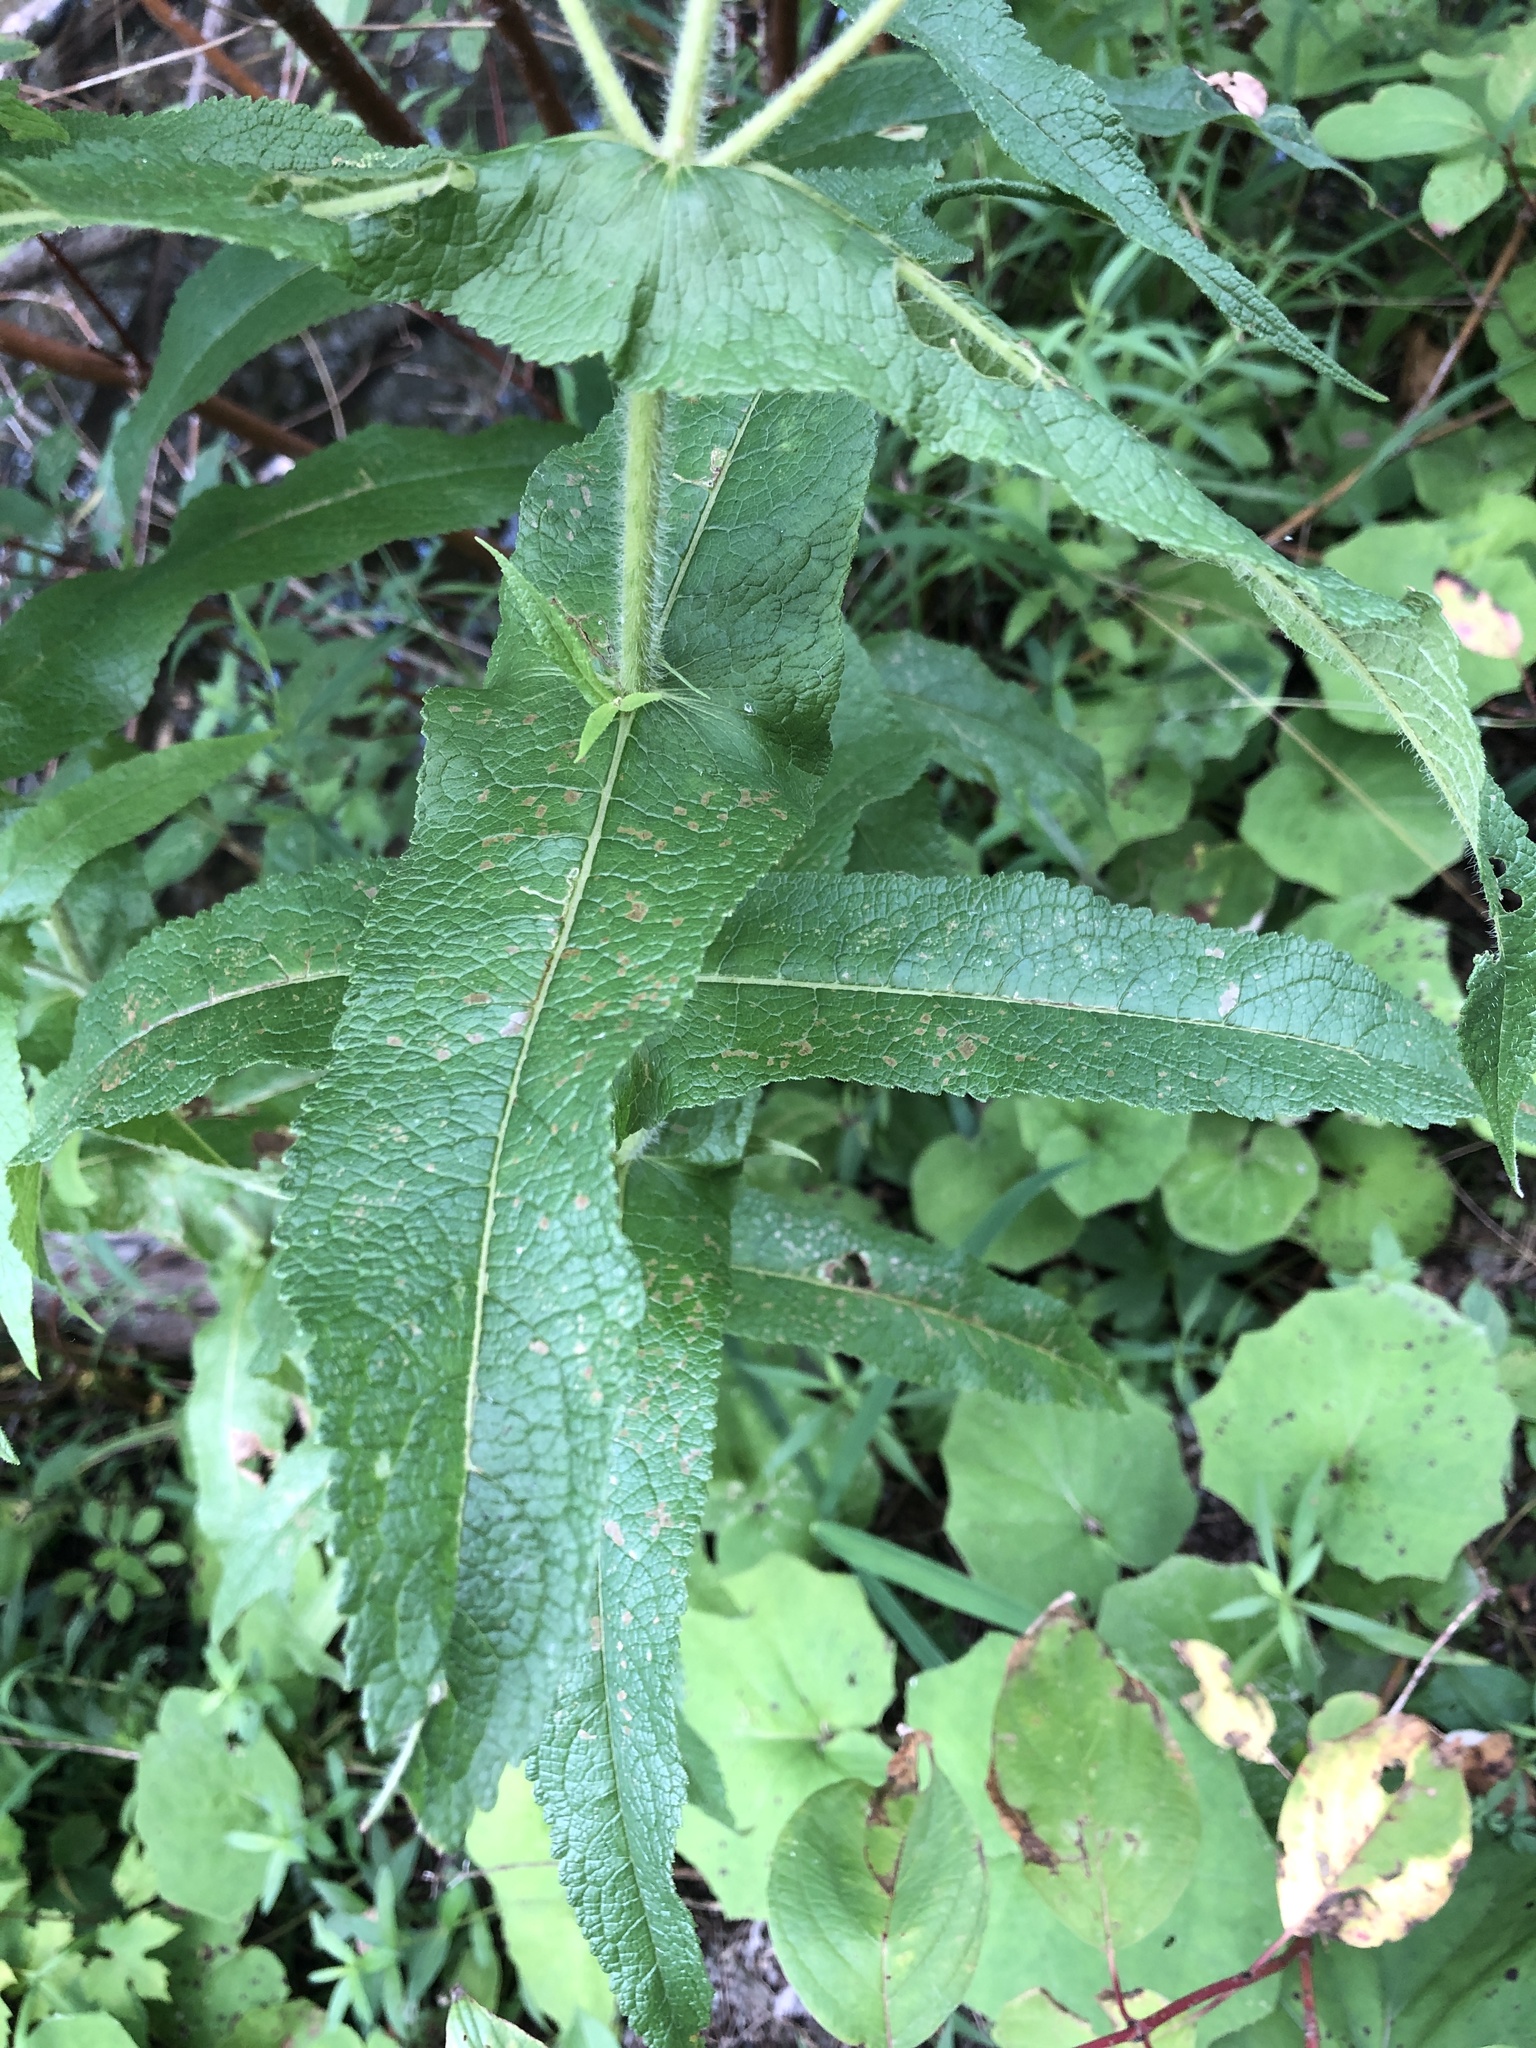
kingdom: Plantae
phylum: Tracheophyta
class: Magnoliopsida
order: Asterales
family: Asteraceae
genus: Eupatorium
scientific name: Eupatorium perfoliatum
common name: Boneset
